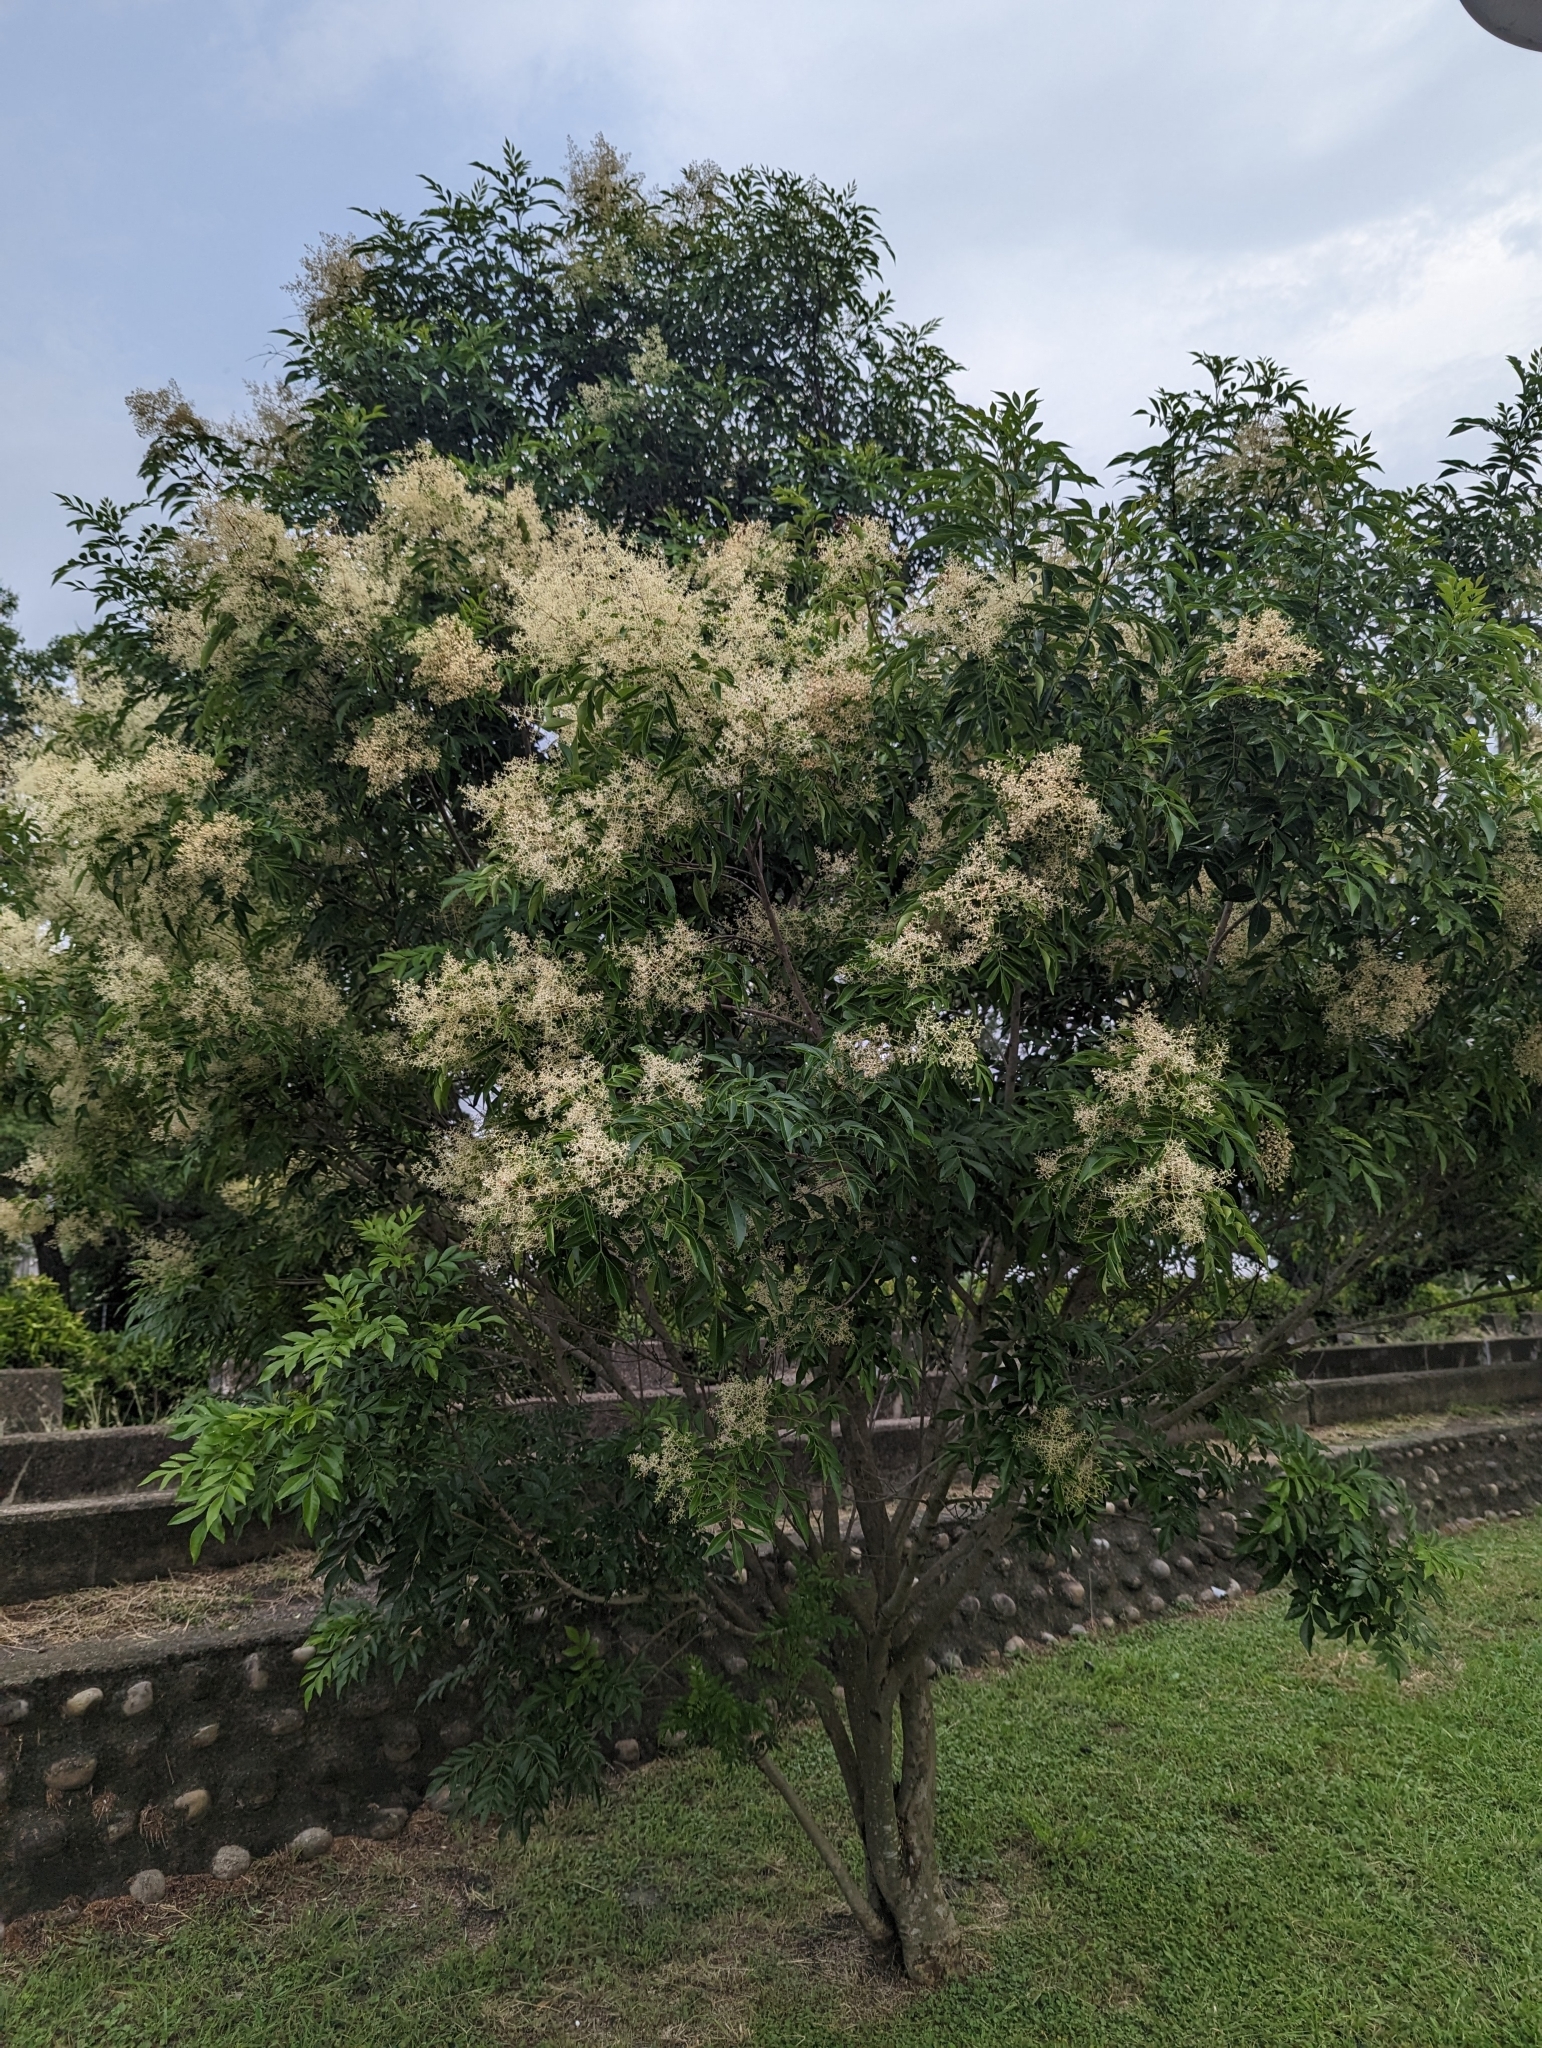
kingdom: Plantae
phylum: Tracheophyta
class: Magnoliopsida
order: Lamiales
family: Oleaceae
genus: Fraxinus
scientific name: Fraxinus griffithii
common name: Himalayan ash
